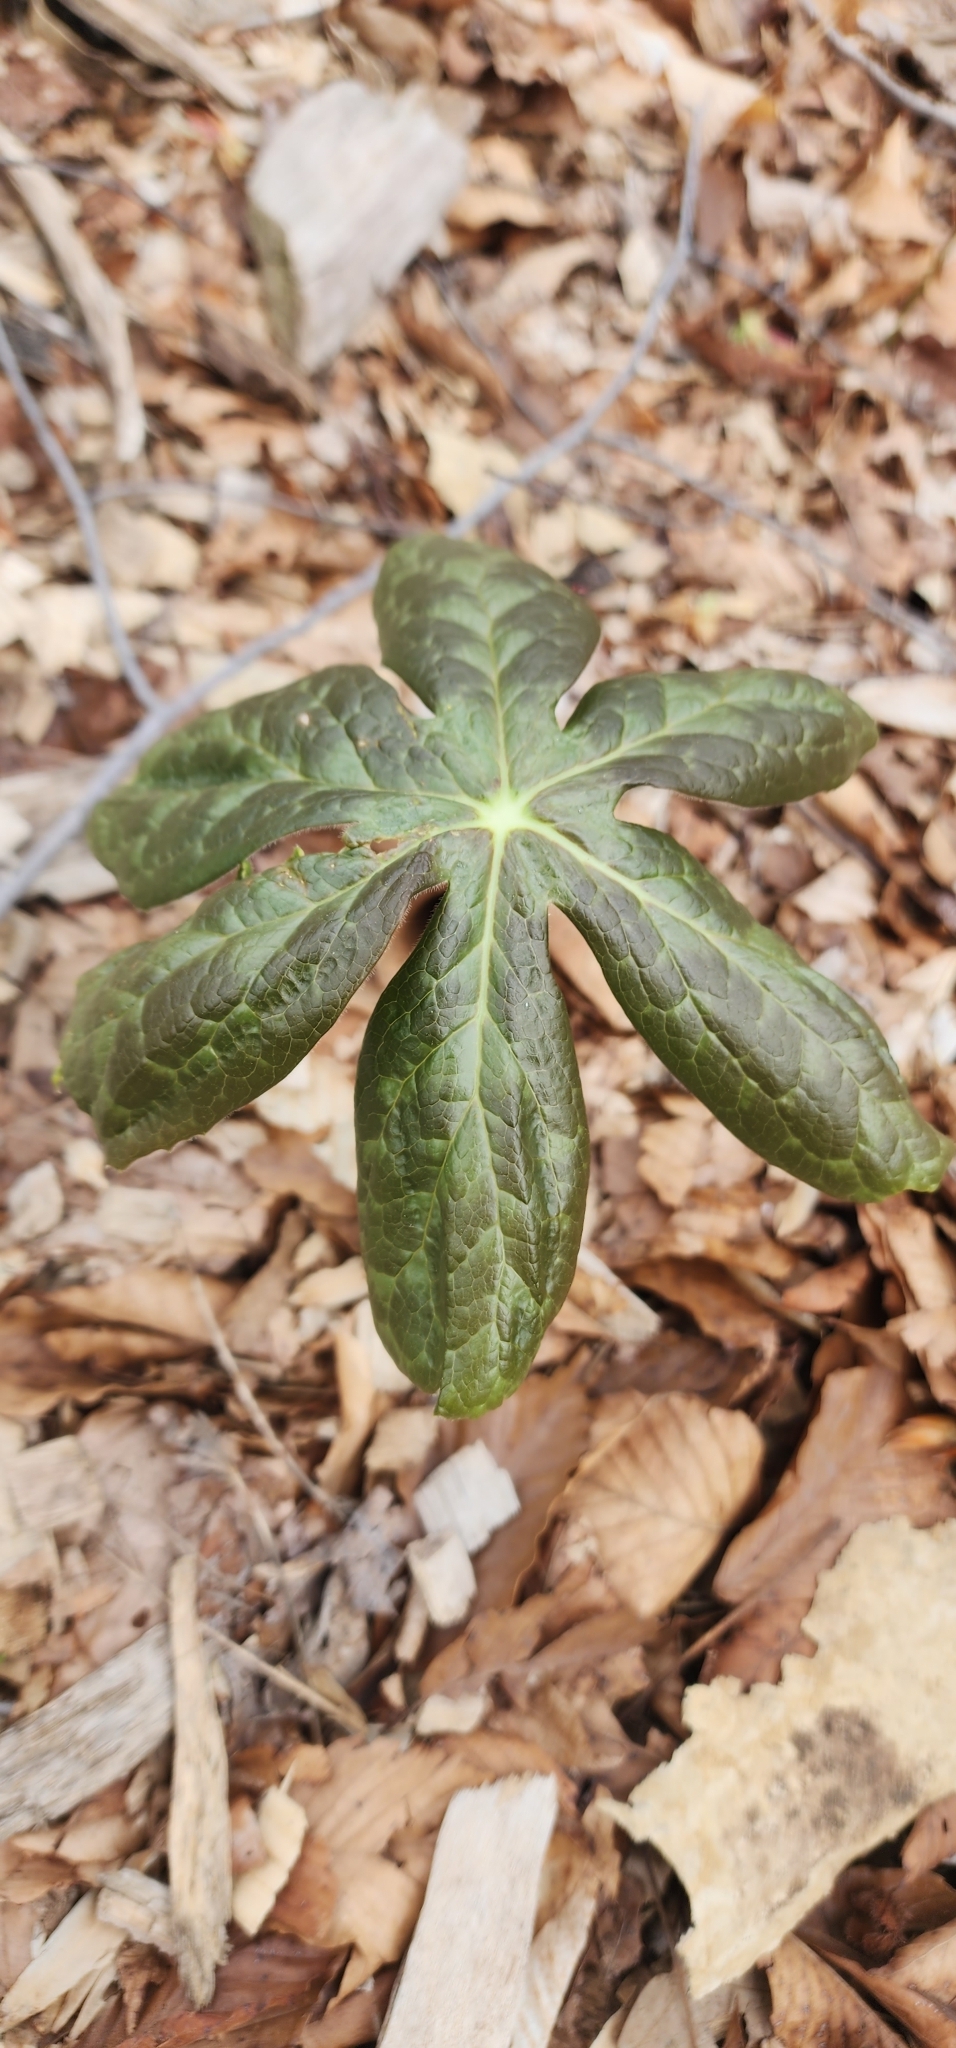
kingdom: Plantae
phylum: Tracheophyta
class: Magnoliopsida
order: Ranunculales
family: Berberidaceae
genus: Podophyllum
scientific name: Podophyllum peltatum
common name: Wild mandrake
